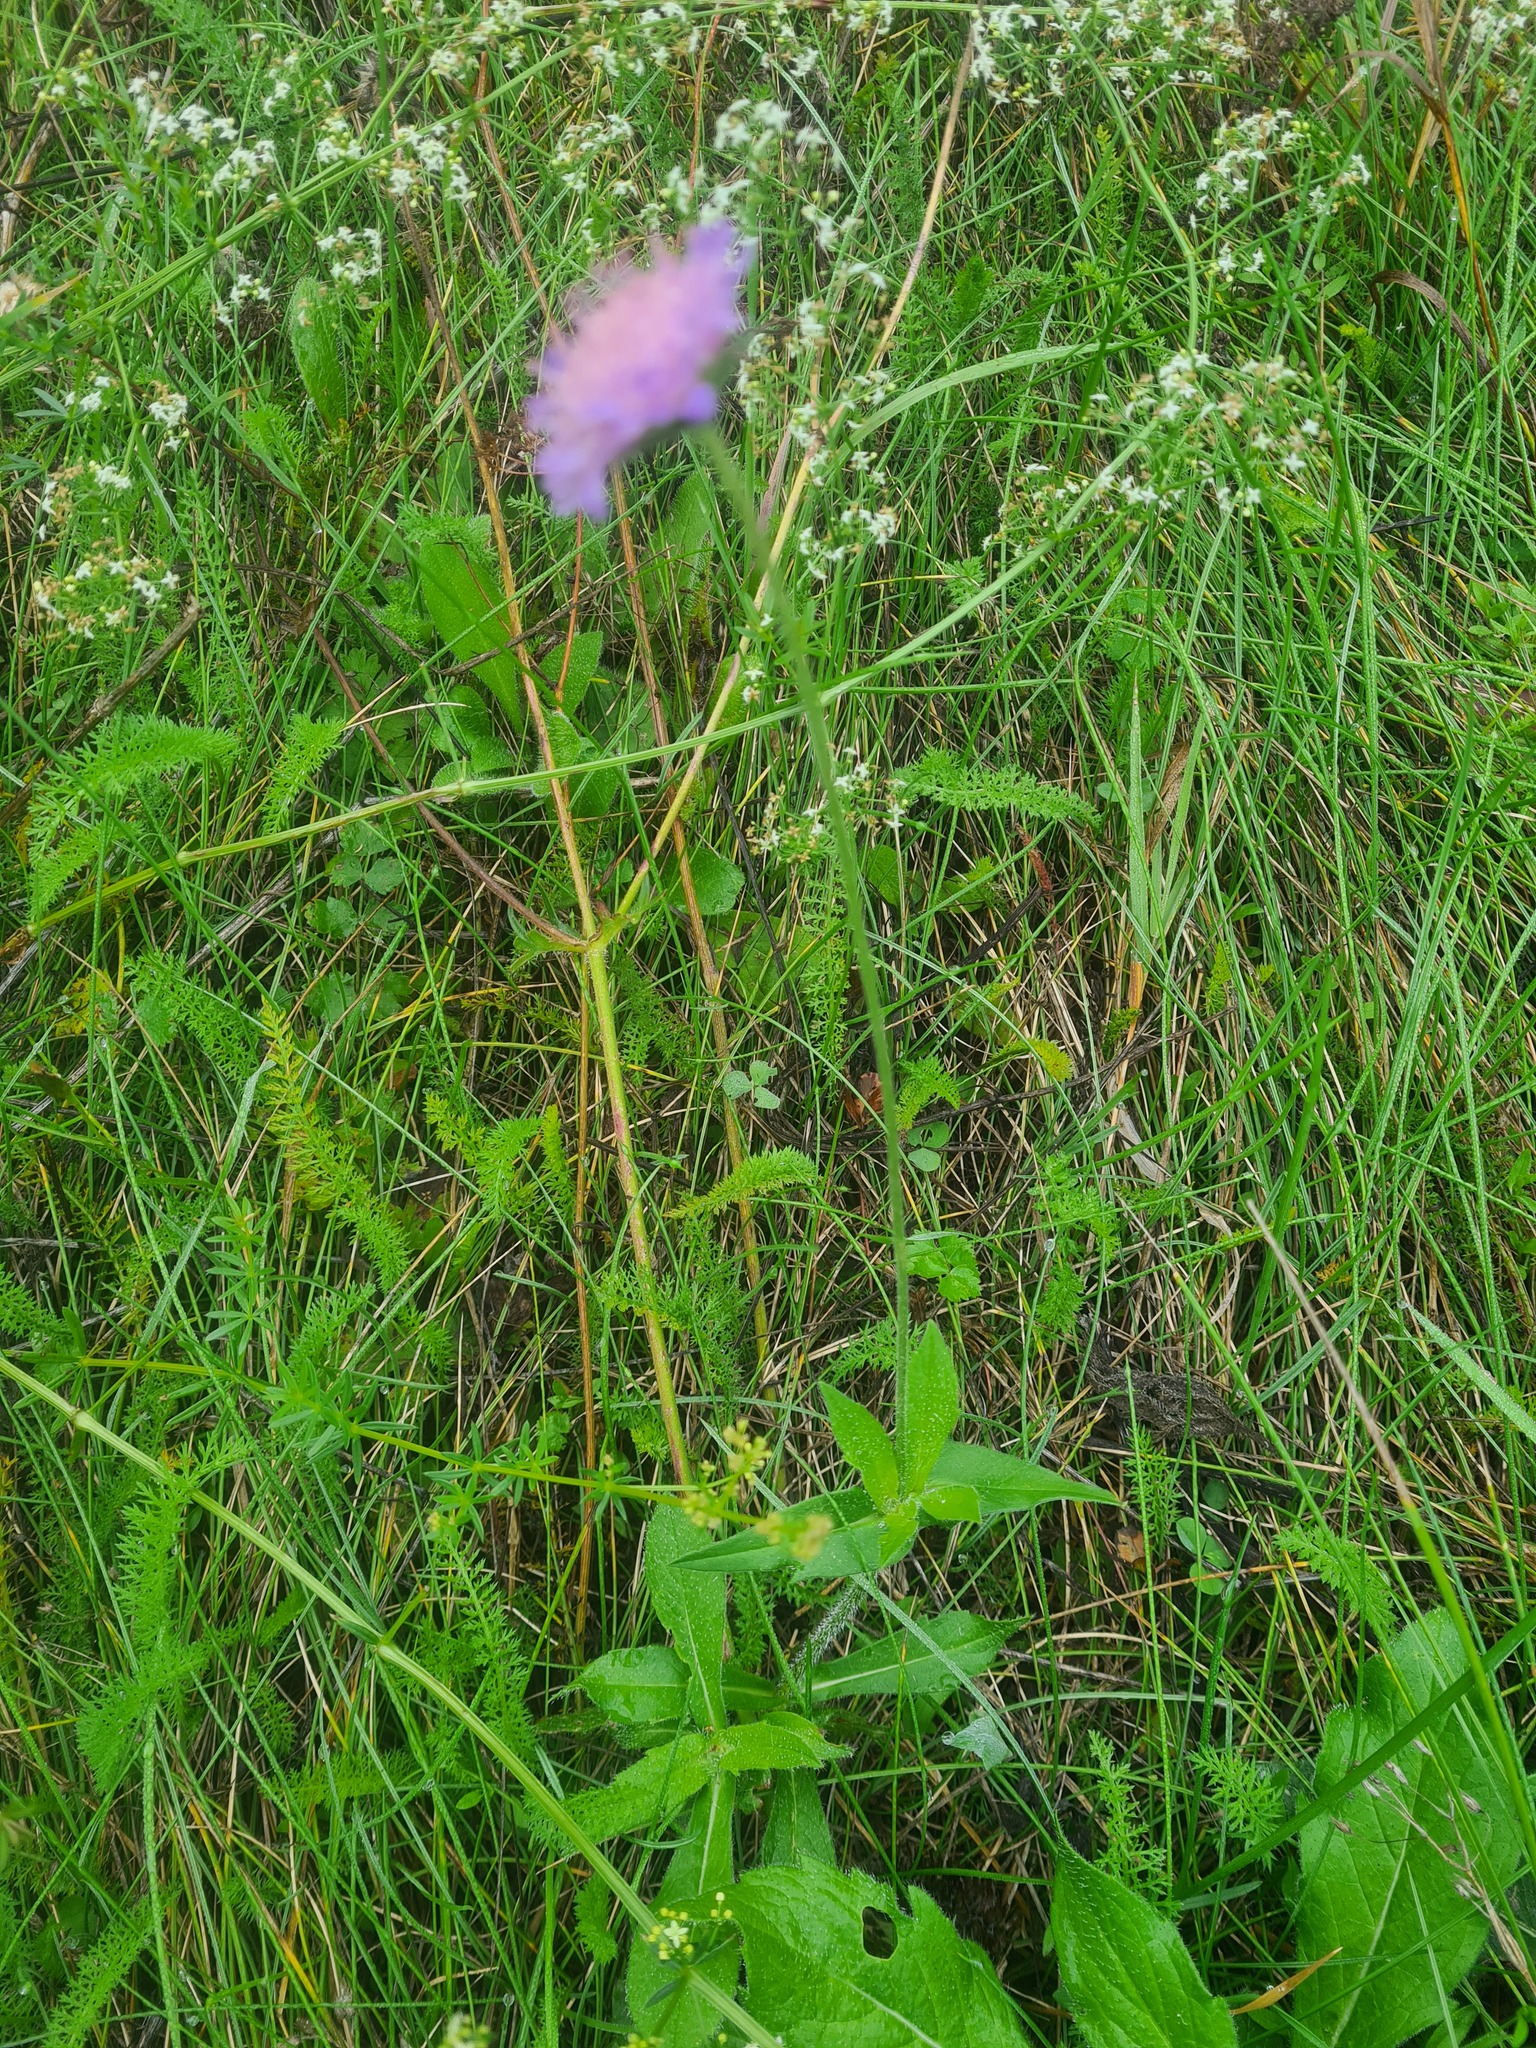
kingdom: Plantae
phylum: Tracheophyta
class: Magnoliopsida
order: Dipsacales
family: Caprifoliaceae
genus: Knautia
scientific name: Knautia arvensis
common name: Field scabiosa
